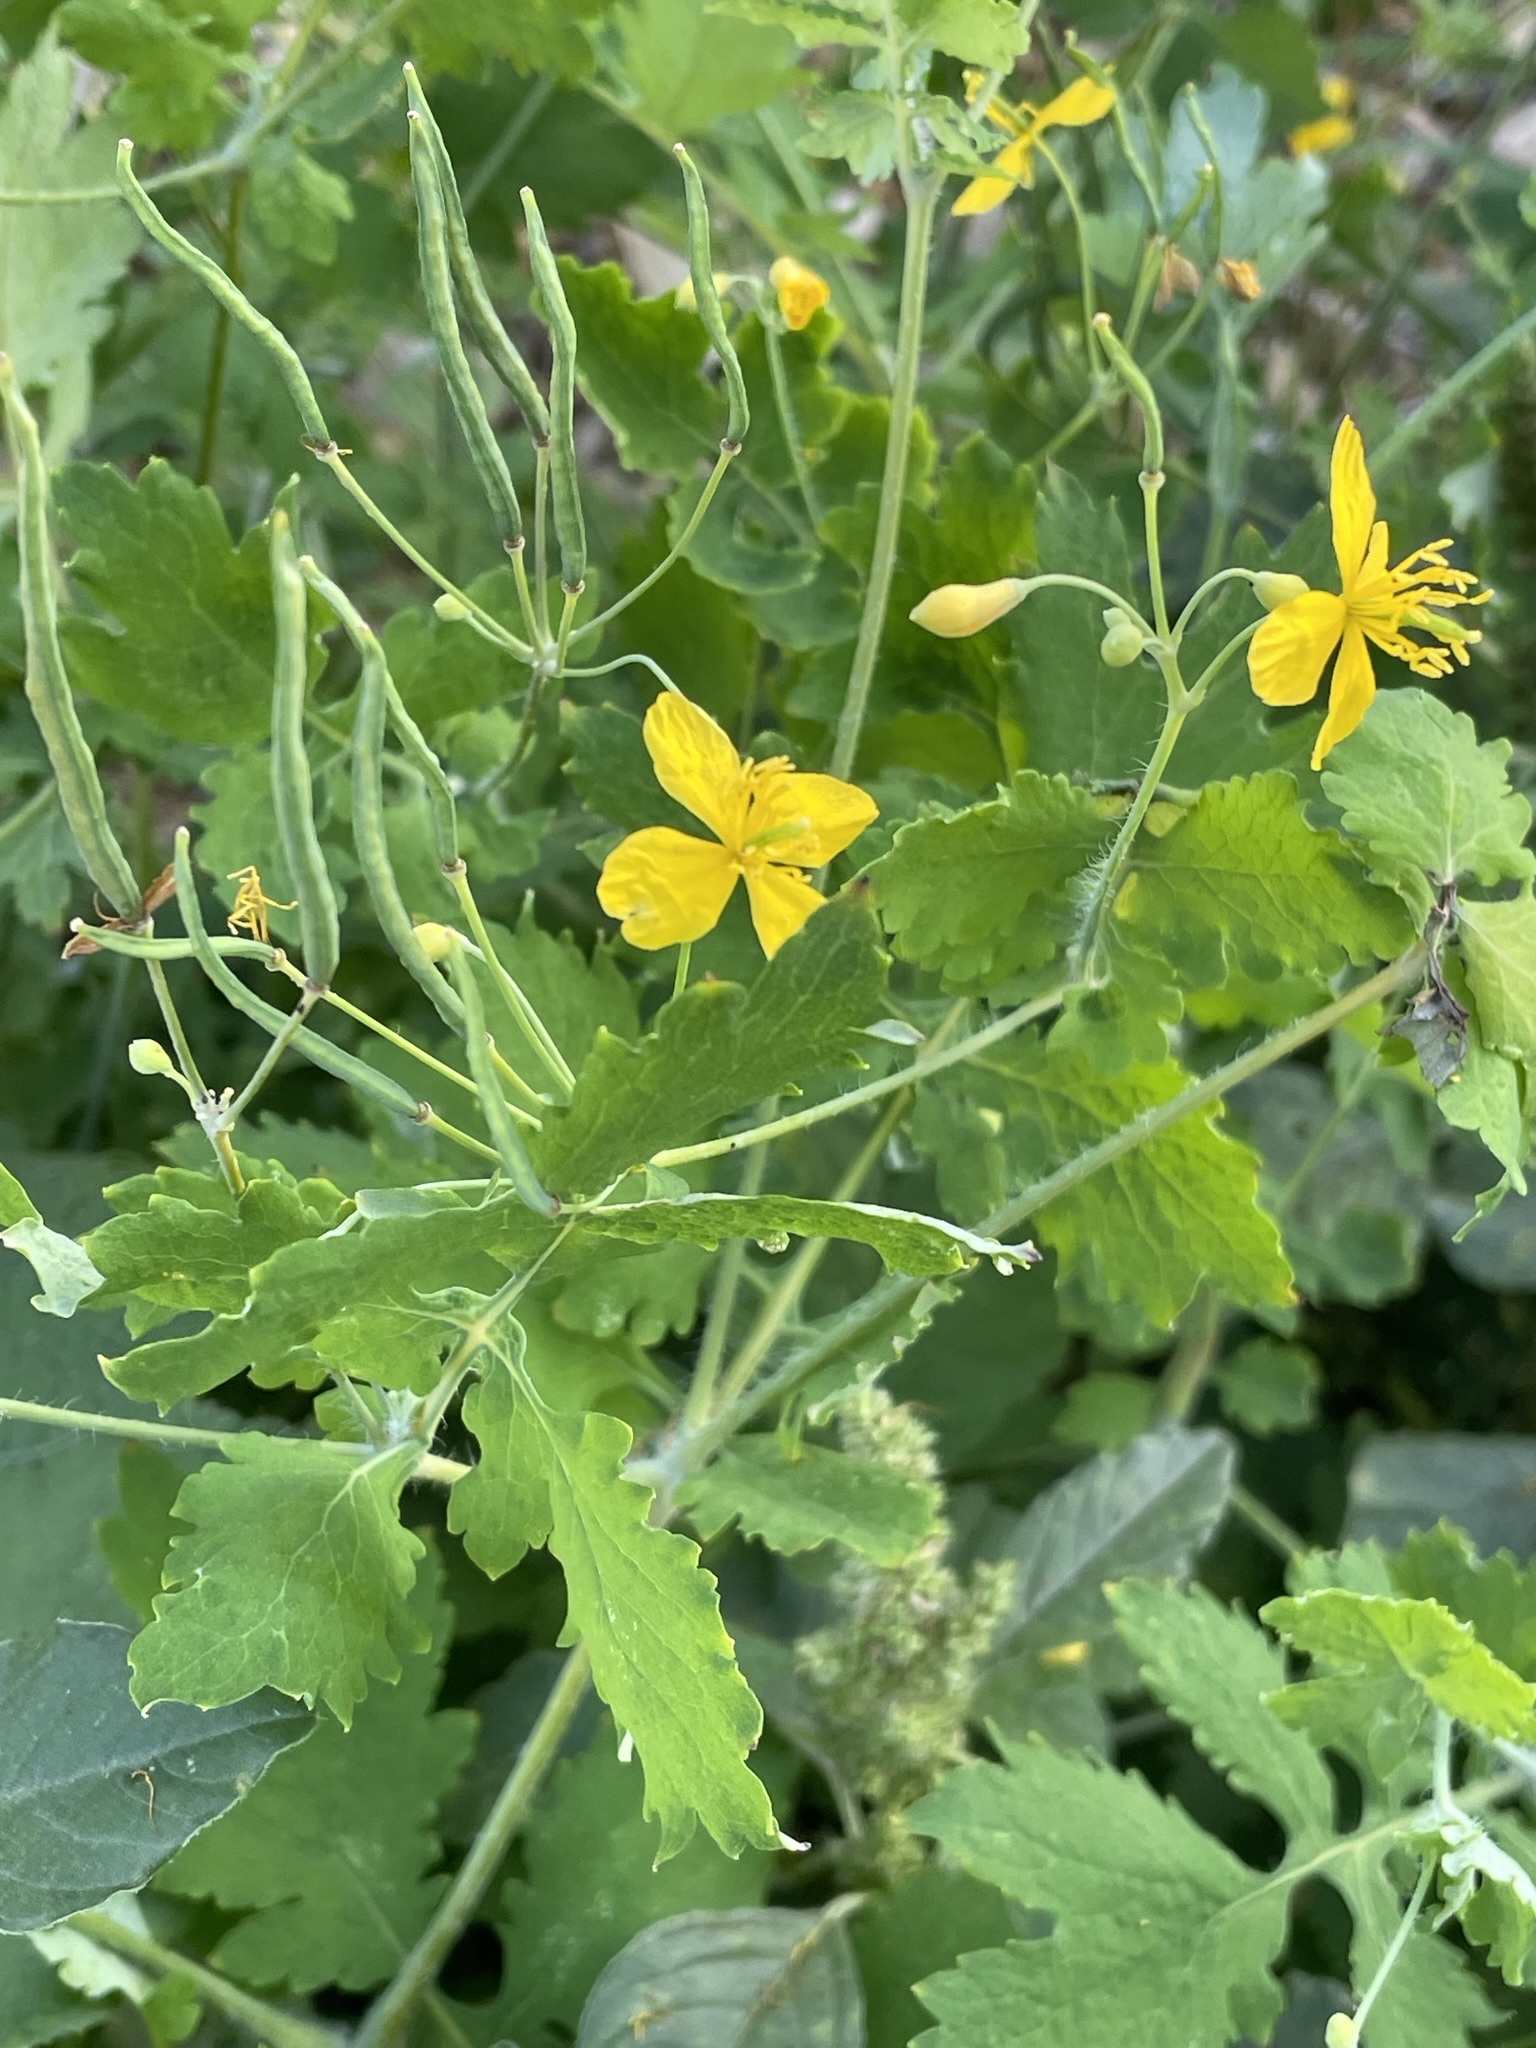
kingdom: Plantae
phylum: Tracheophyta
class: Magnoliopsida
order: Ranunculales
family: Papaveraceae
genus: Chelidonium
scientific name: Chelidonium majus
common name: Greater celandine
